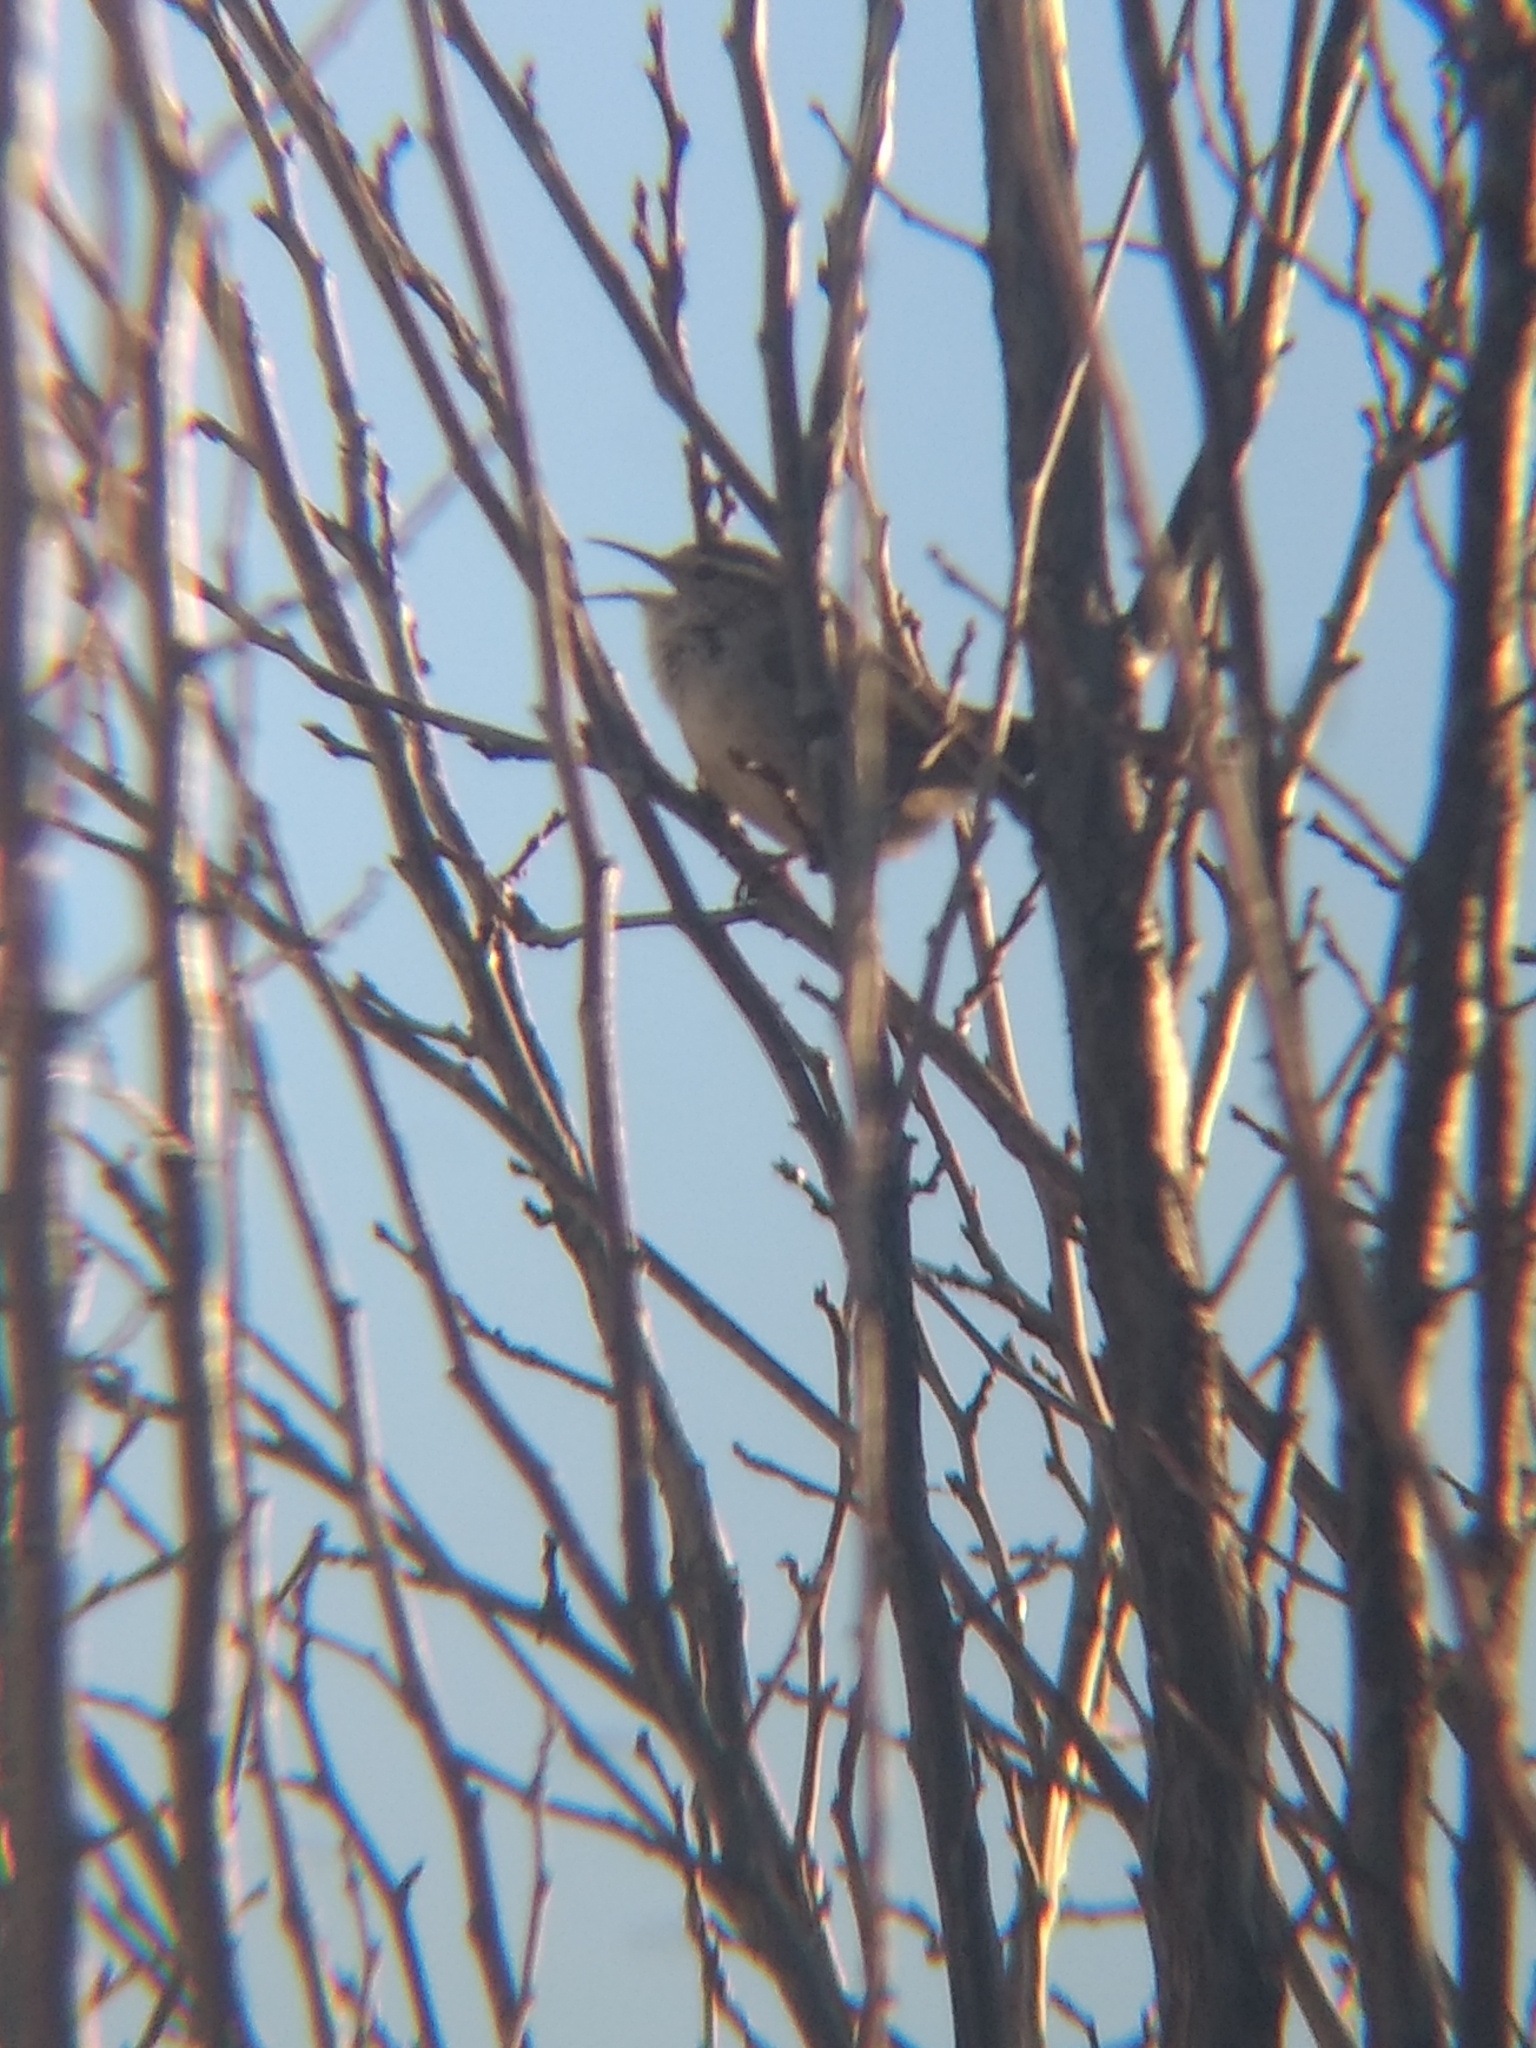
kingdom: Animalia
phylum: Chordata
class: Aves
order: Passeriformes
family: Troglodytidae
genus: Thryomanes
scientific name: Thryomanes bewickii
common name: Bewick's wren
